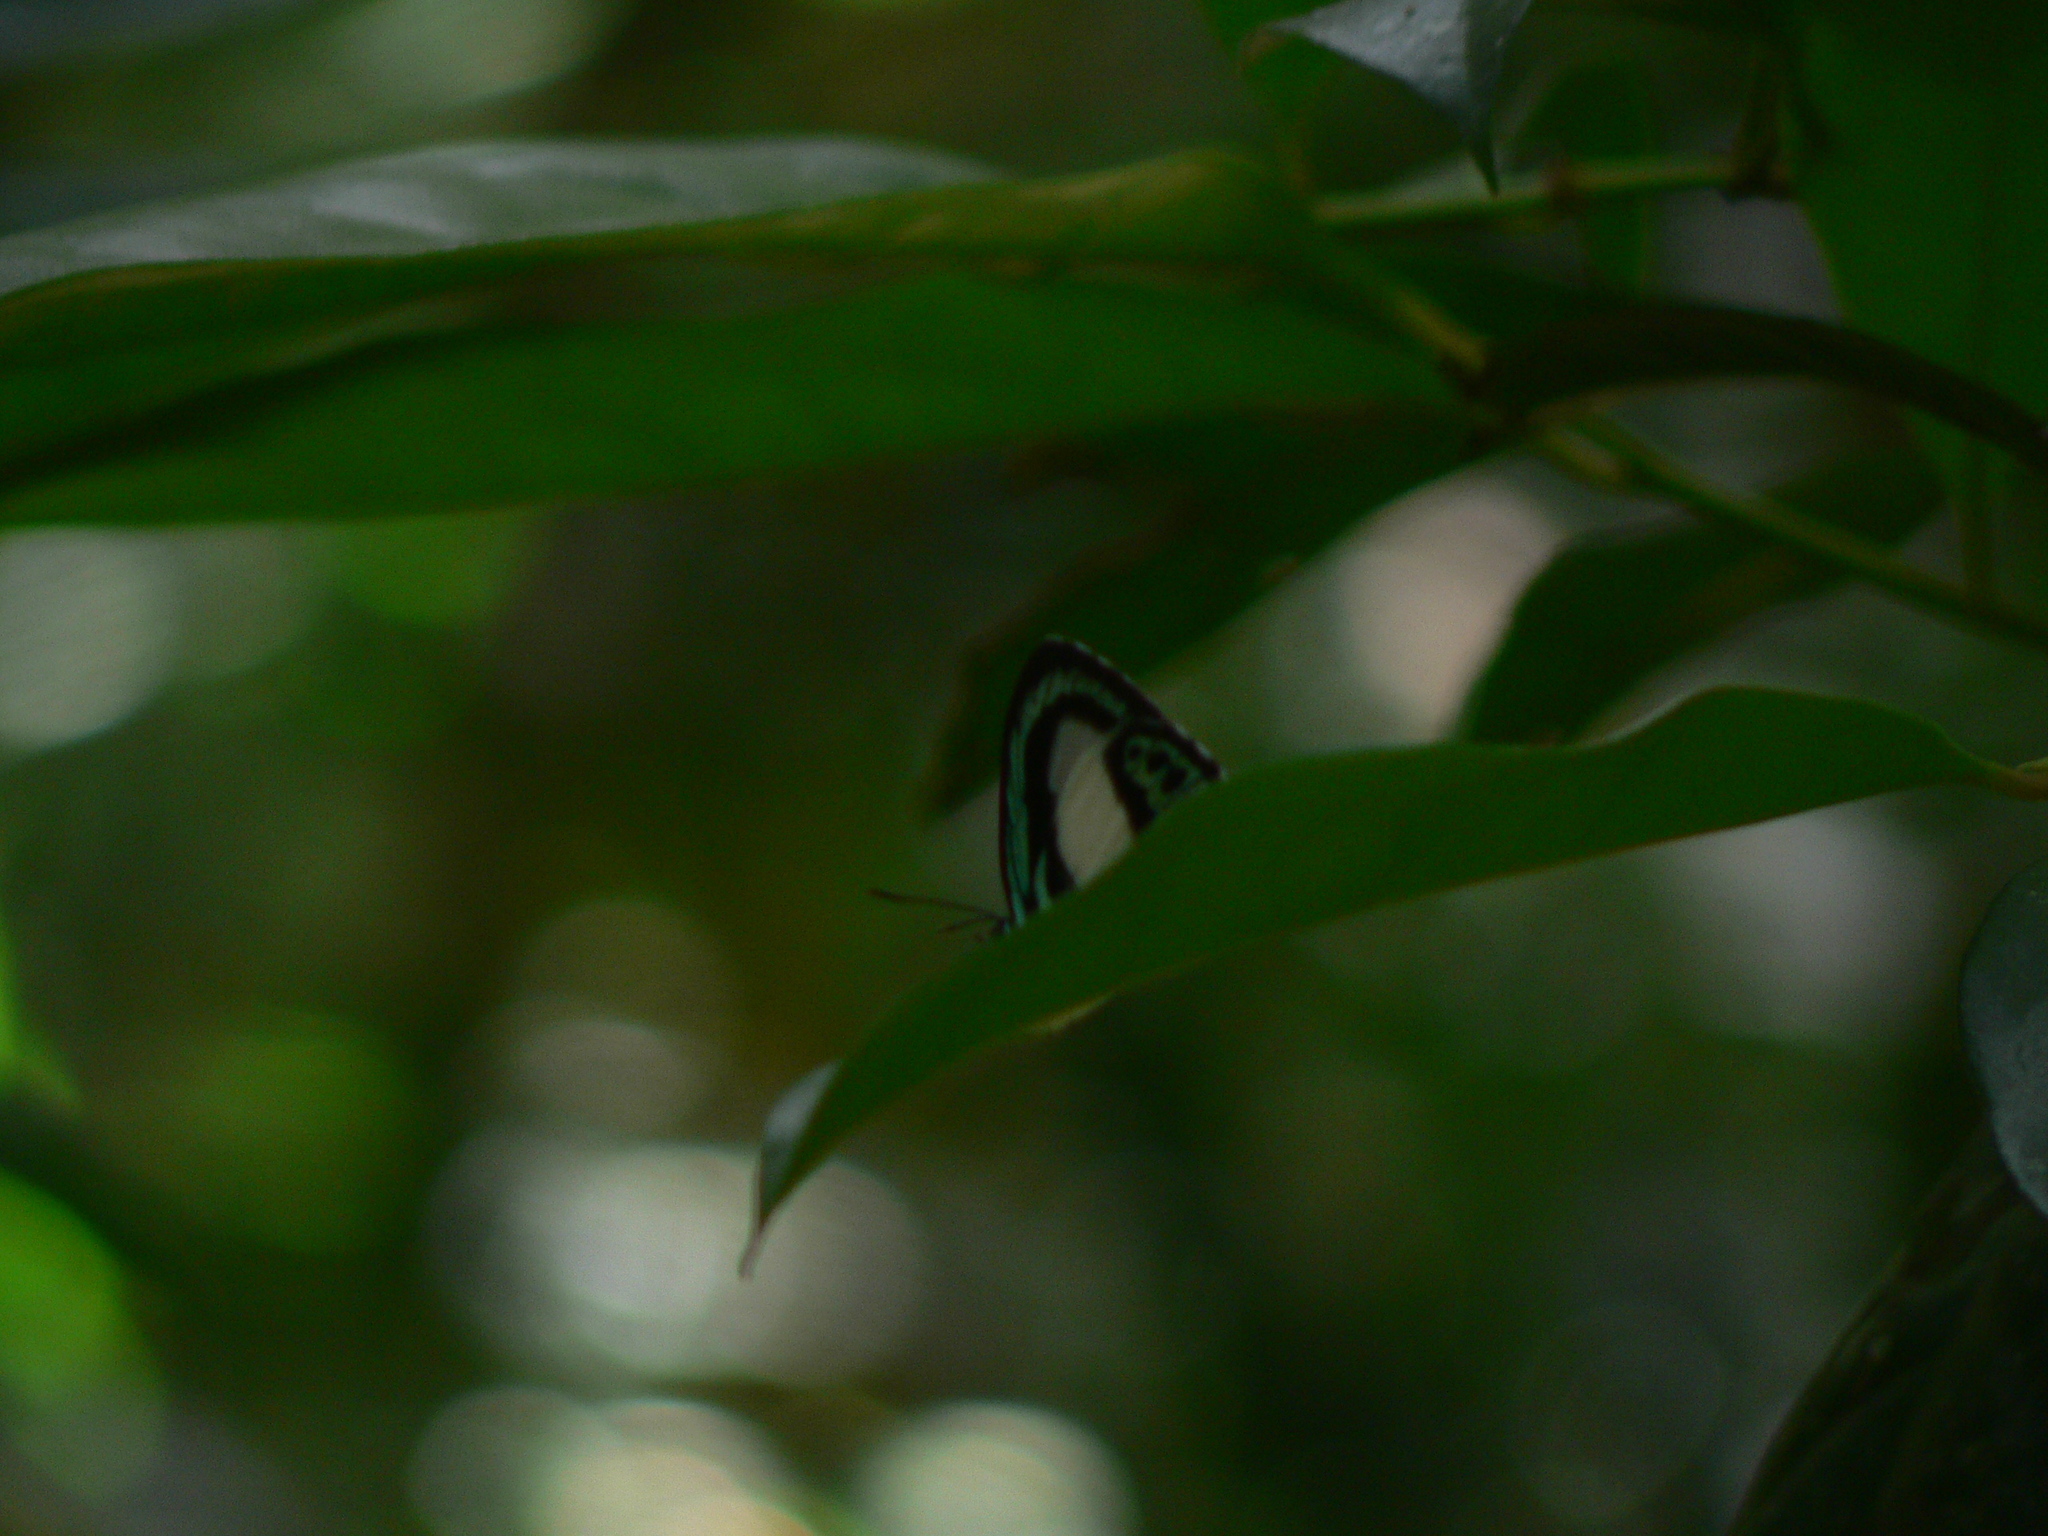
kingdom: Animalia
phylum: Arthropoda
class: Insecta
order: Lepidoptera
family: Lycaenidae
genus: Danis
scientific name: Danis danis
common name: Large green-banded blue
